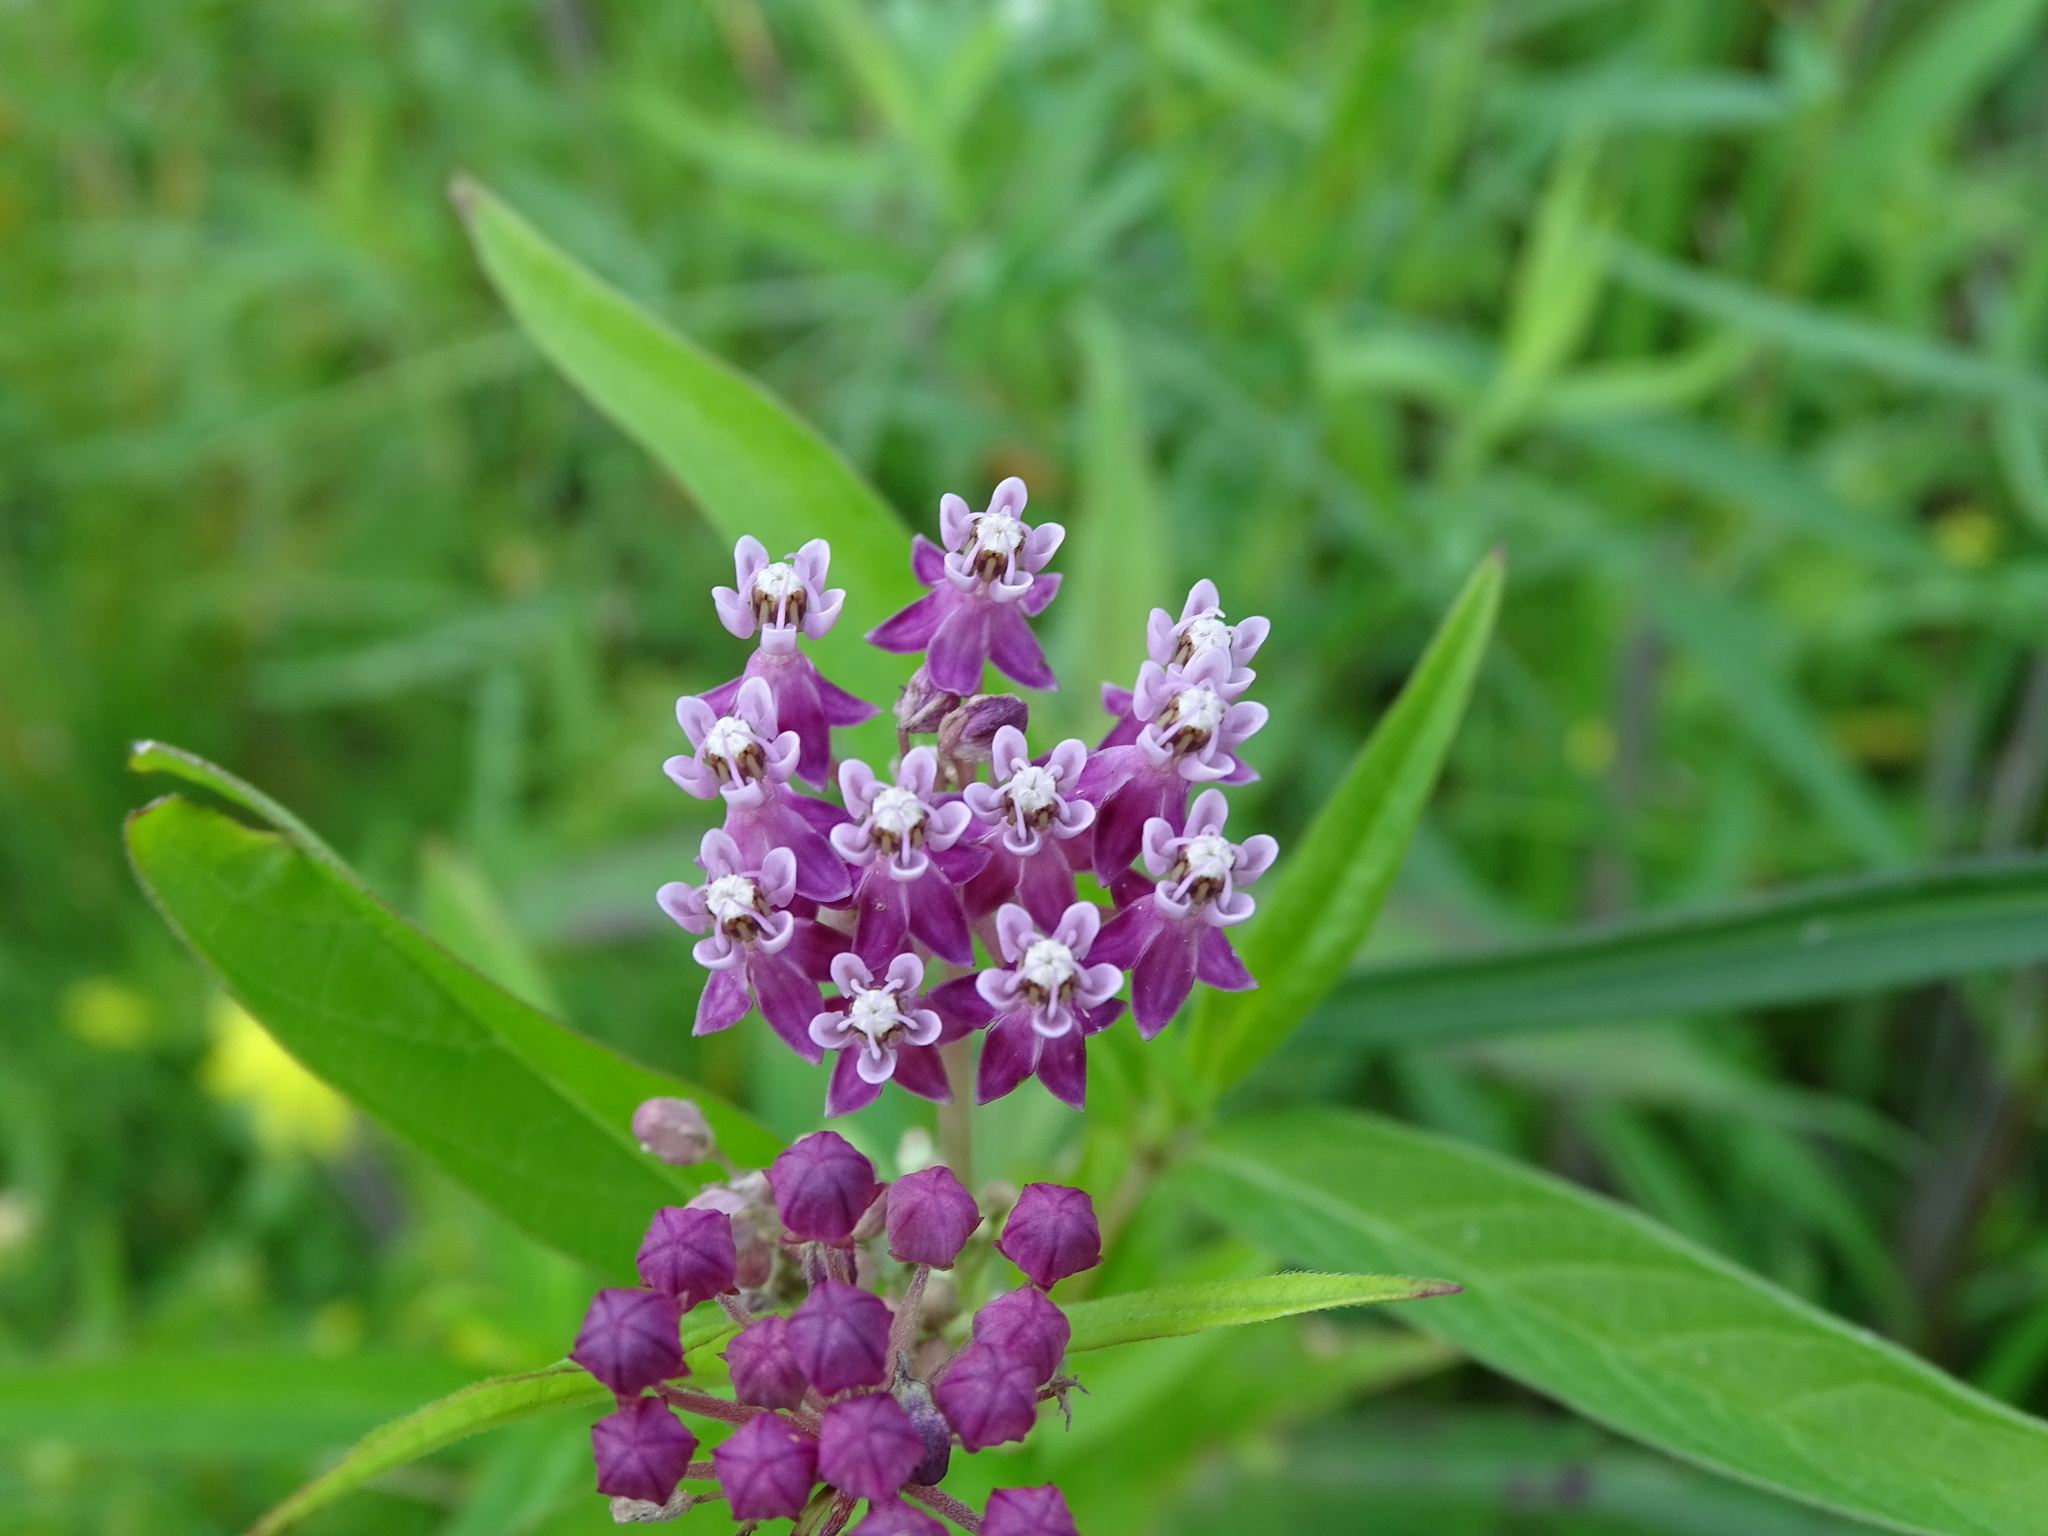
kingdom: Plantae
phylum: Tracheophyta
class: Magnoliopsida
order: Gentianales
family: Apocynaceae
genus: Asclepias
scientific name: Asclepias incarnata
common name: Swamp milkweed
